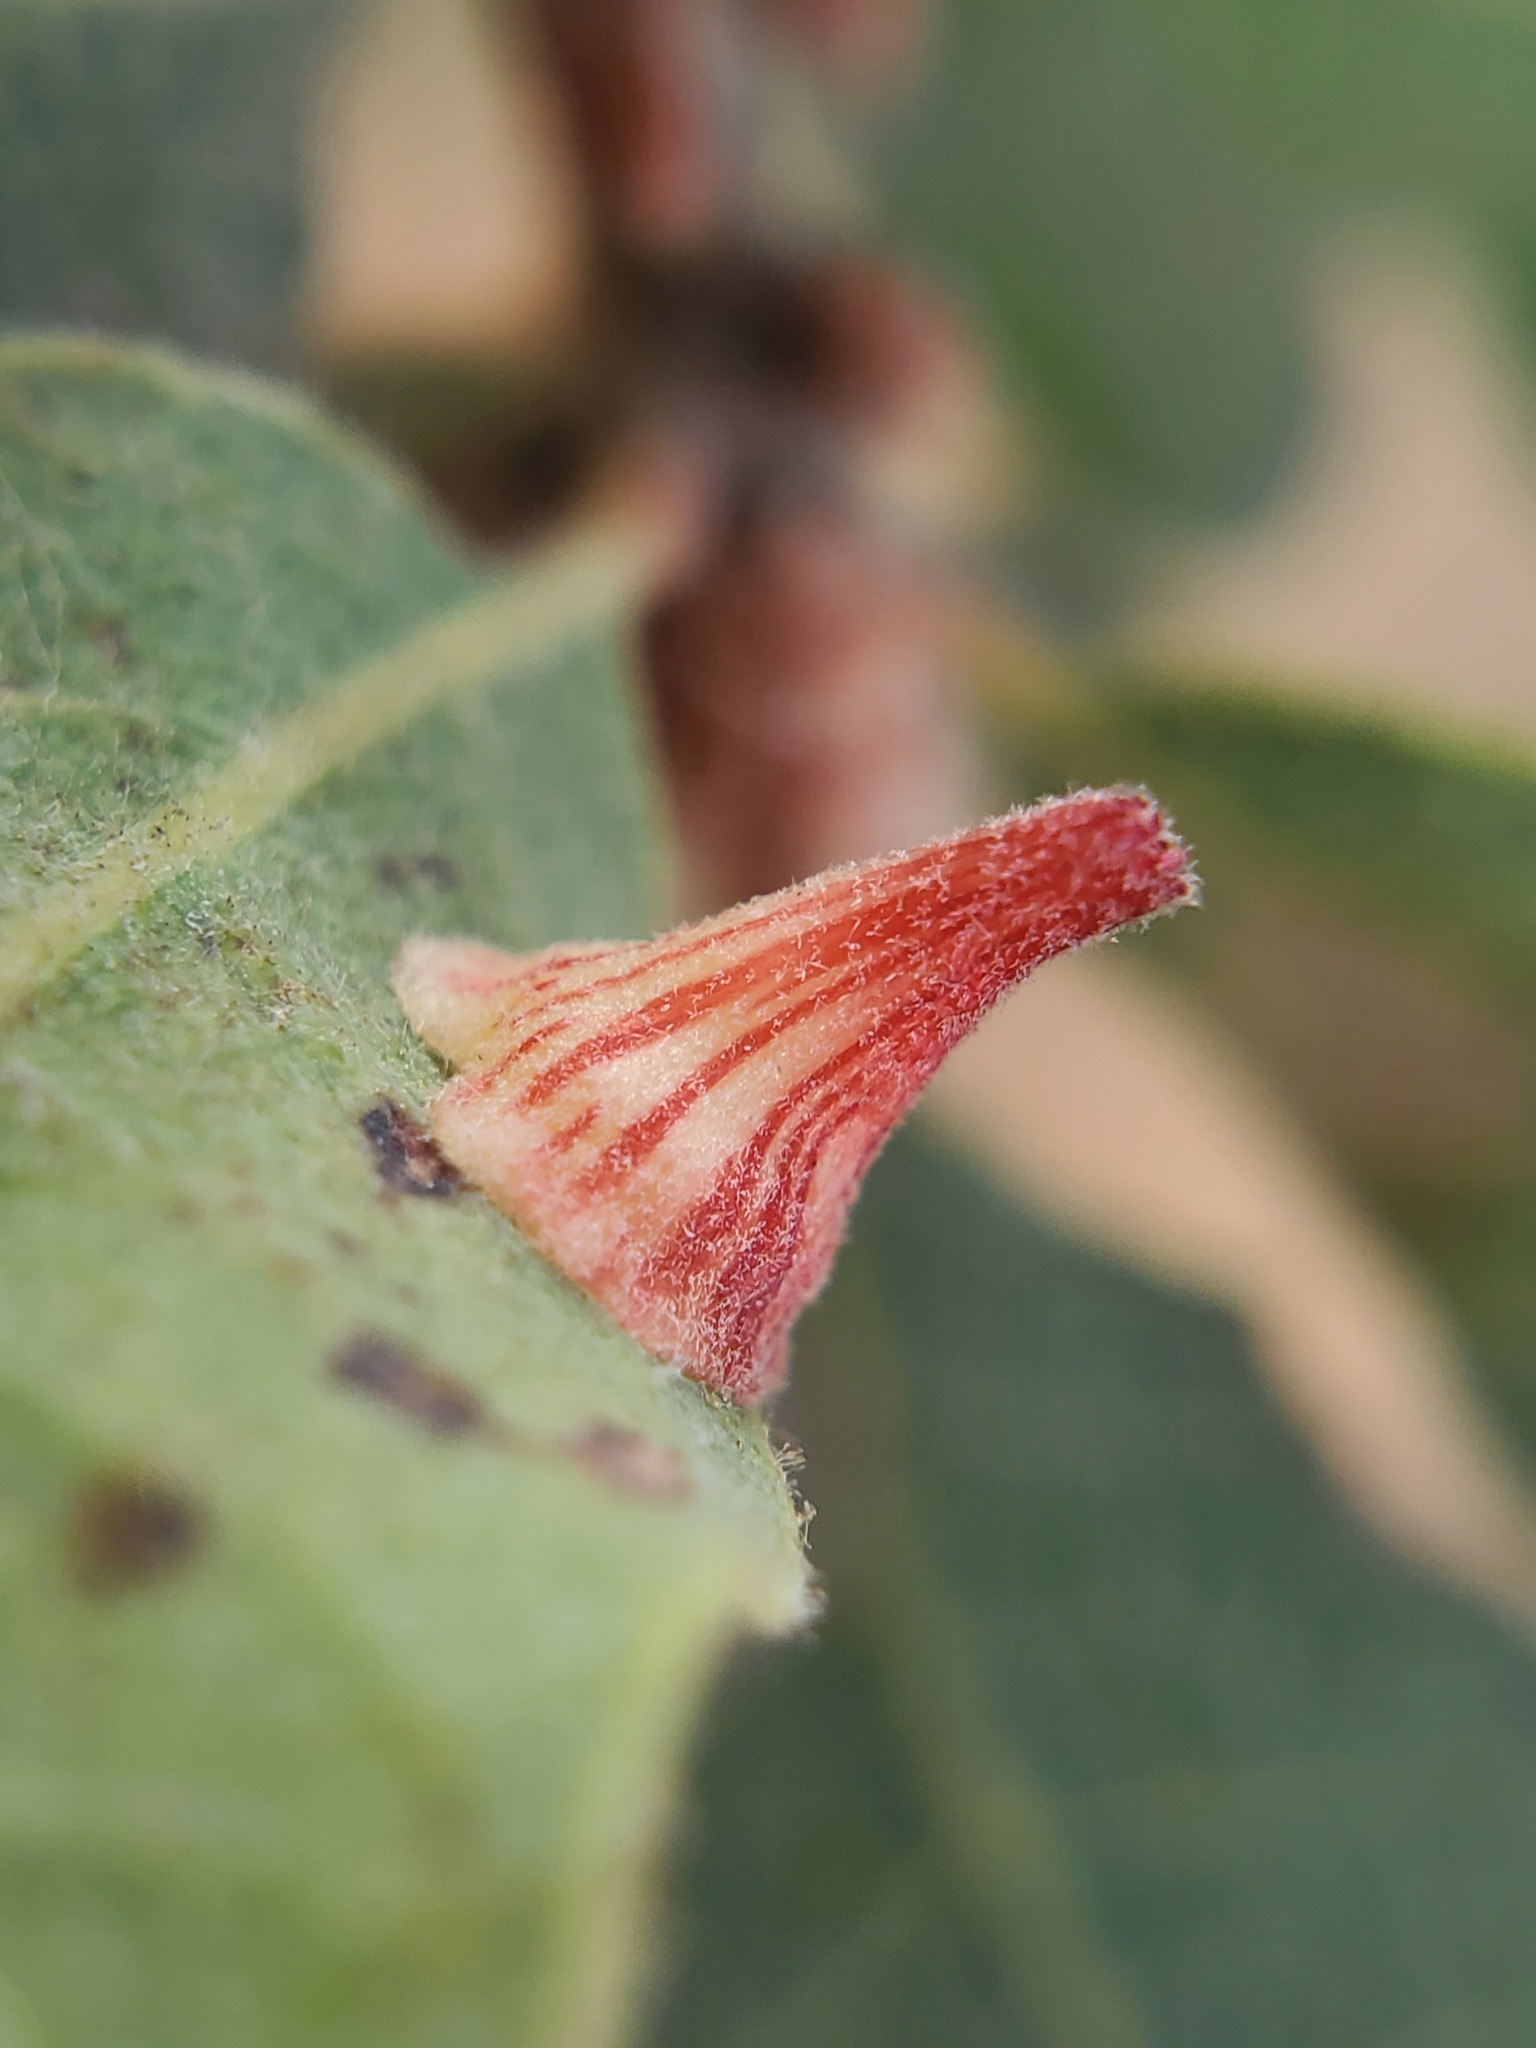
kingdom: Animalia
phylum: Arthropoda
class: Insecta
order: Hymenoptera
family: Cynipidae
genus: Andricus
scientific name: Andricus
